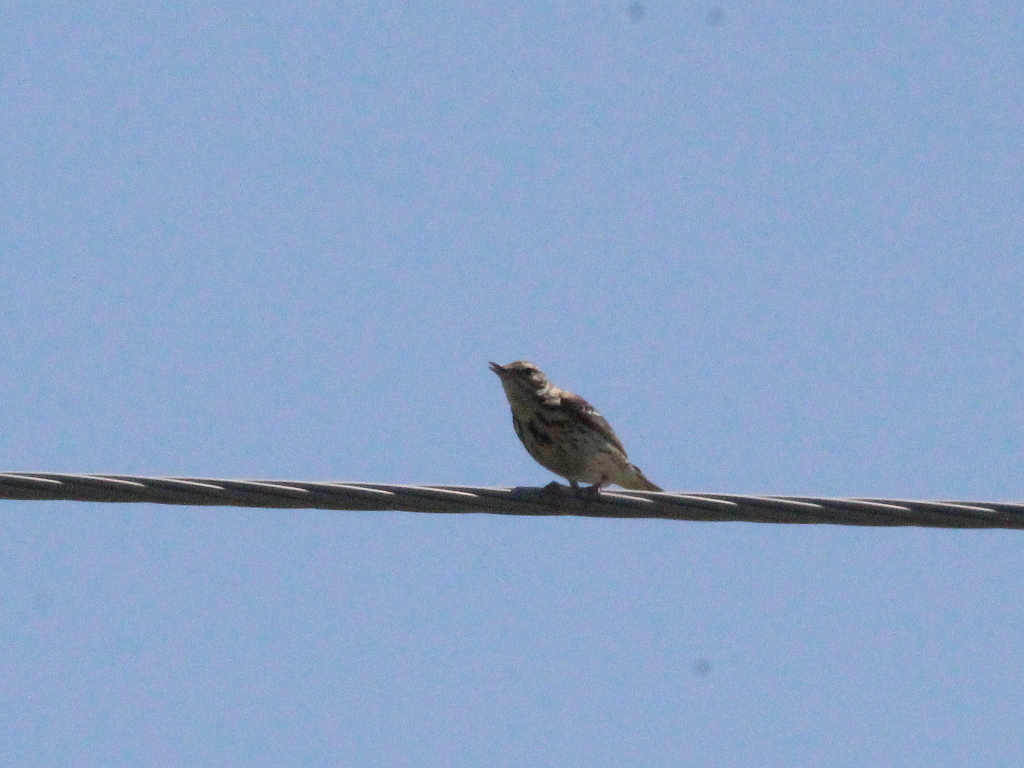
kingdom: Animalia
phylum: Chordata
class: Aves
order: Passeriformes
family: Motacillidae
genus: Anthus
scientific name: Anthus trivialis
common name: Tree pipit
